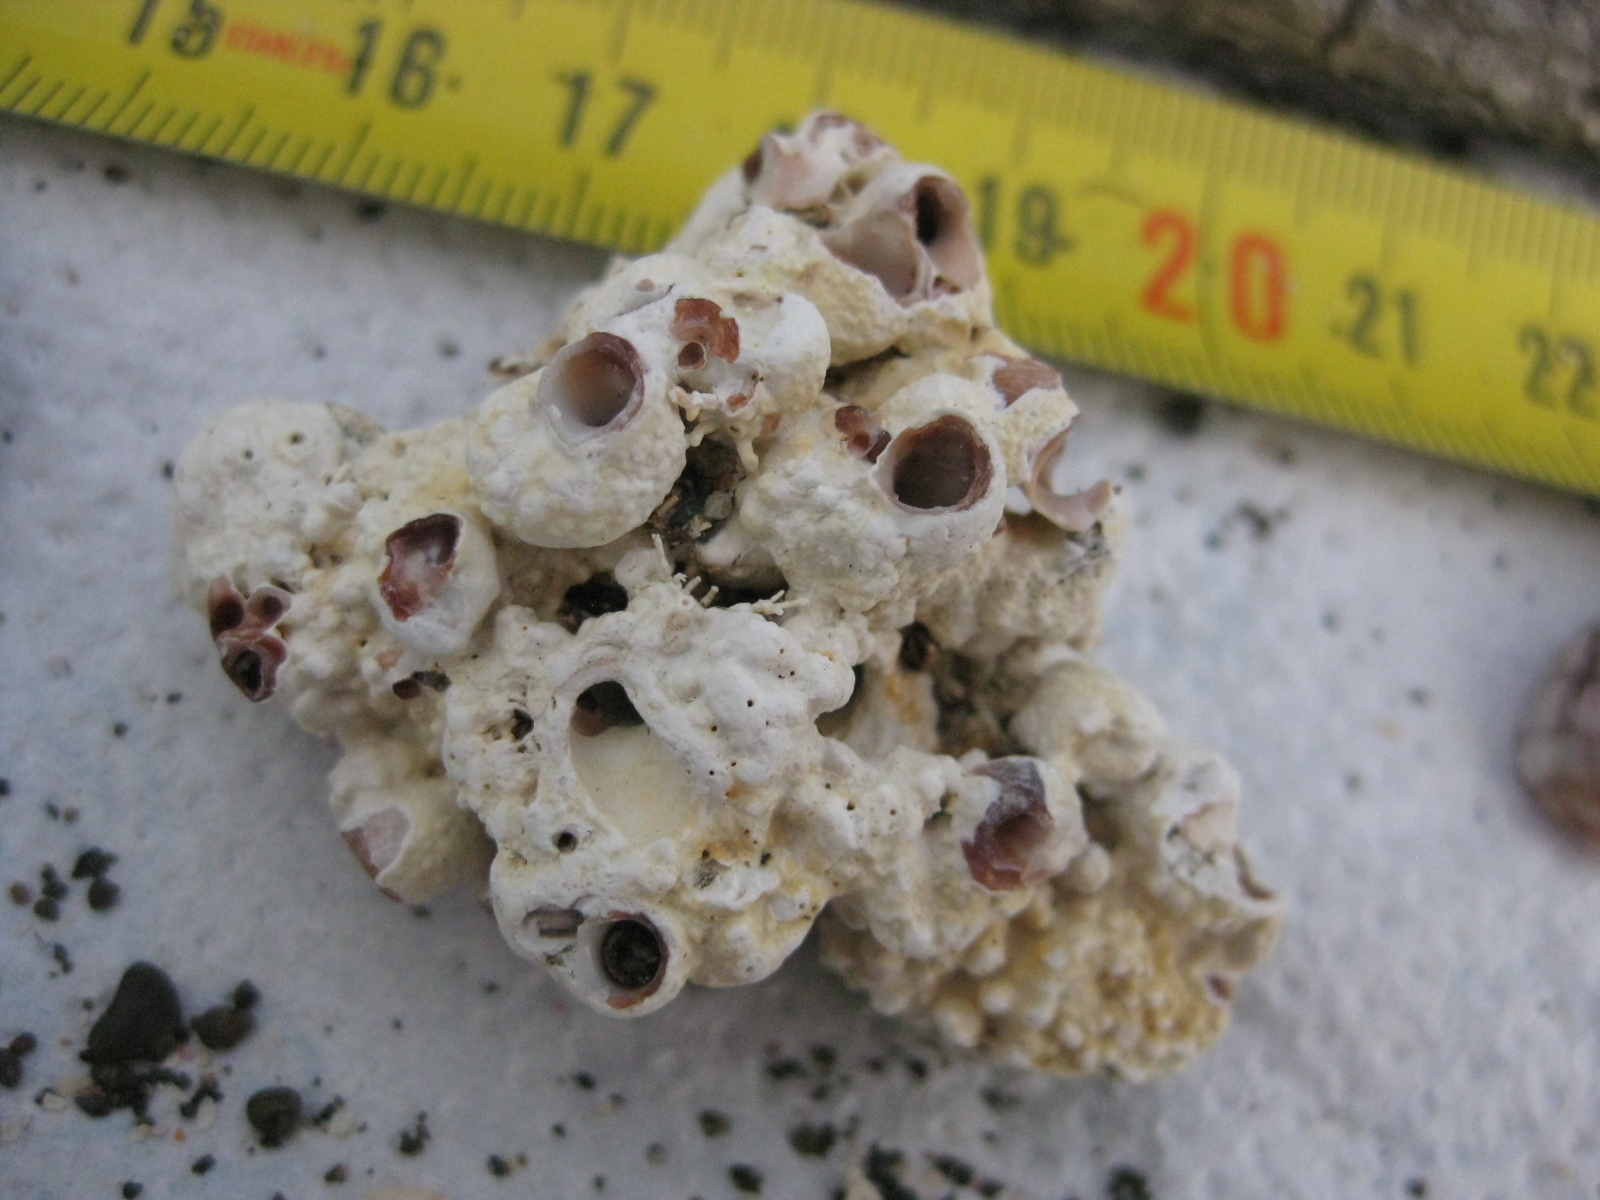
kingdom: Animalia
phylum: Mollusca
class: Gastropoda
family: Siliquariidae
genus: Stephopoma
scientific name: Stephopoma roseum
